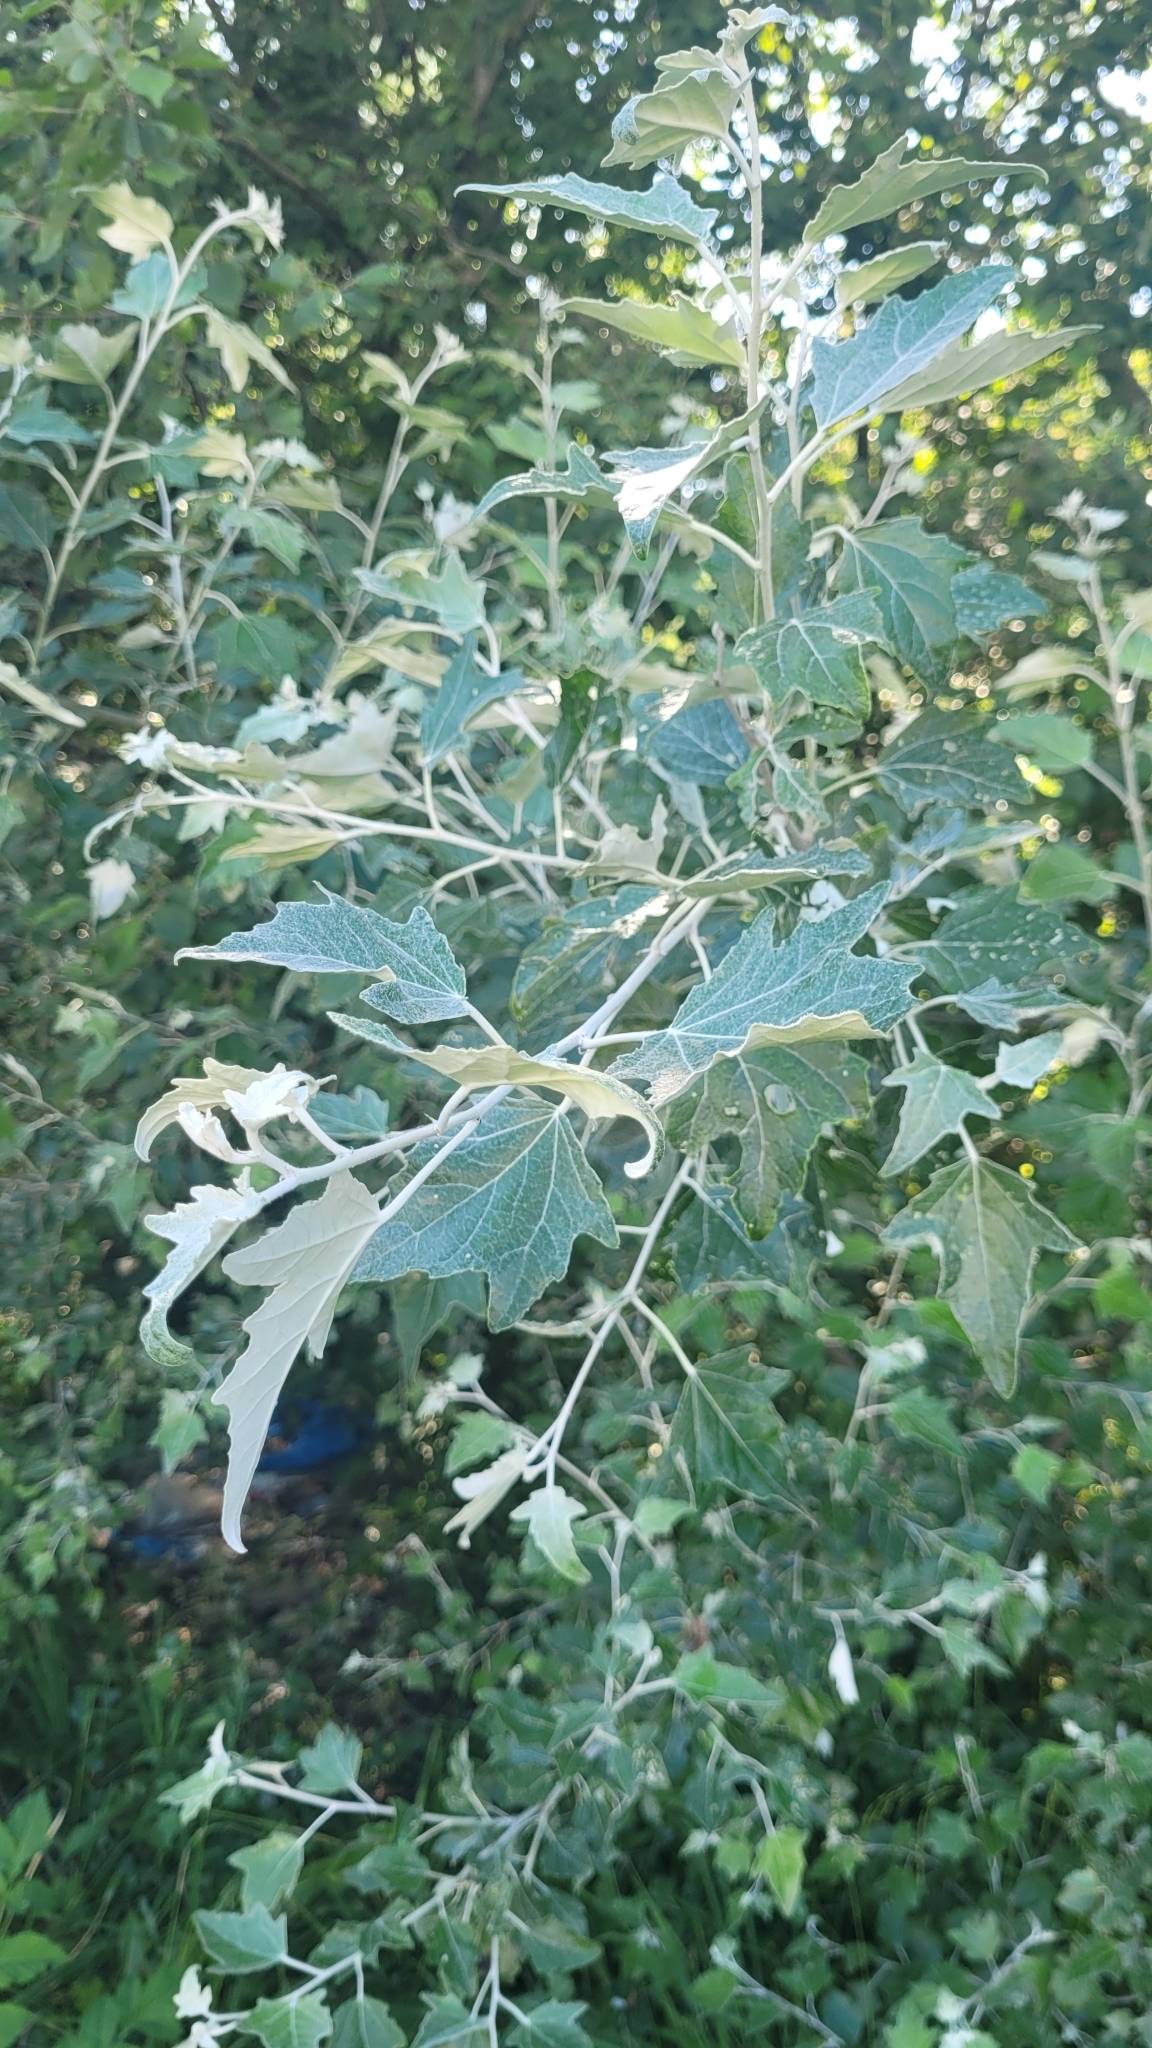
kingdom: Plantae
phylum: Tracheophyta
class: Magnoliopsida
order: Malpighiales
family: Salicaceae
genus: Populus
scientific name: Populus alba
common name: White poplar
